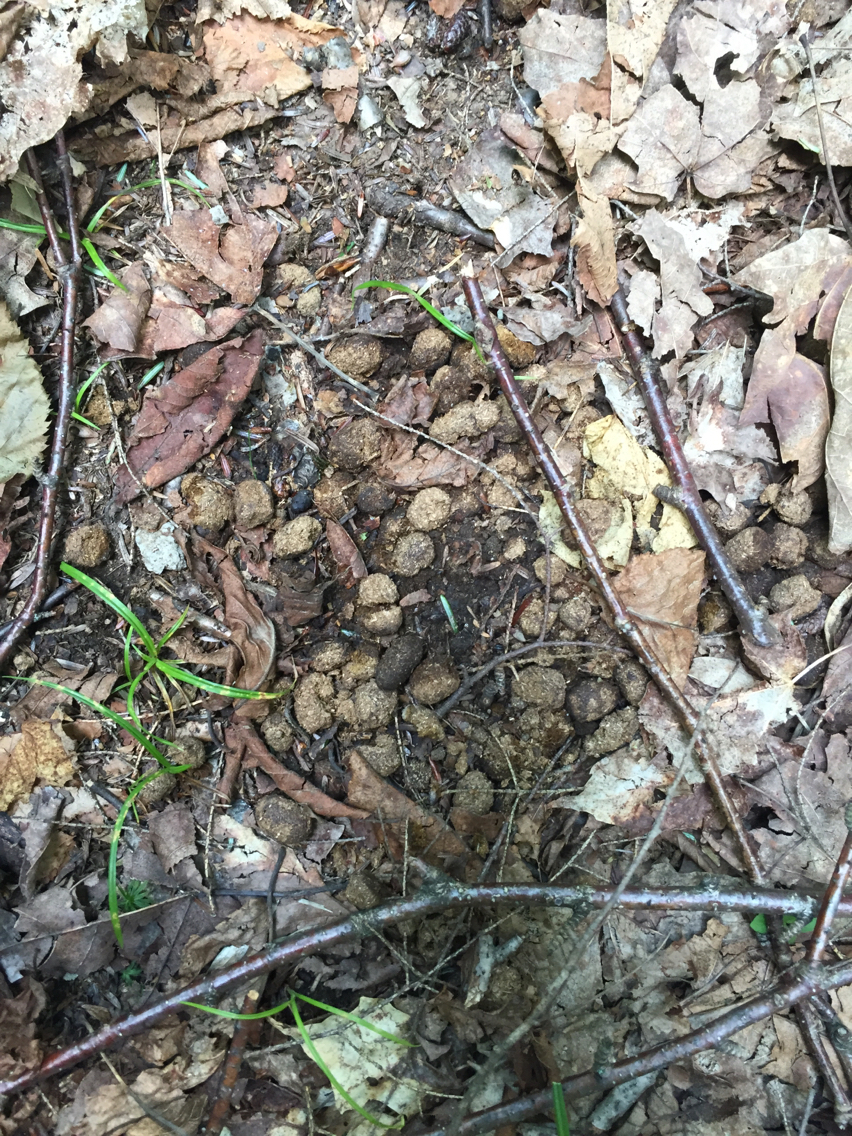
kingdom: Animalia
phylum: Chordata
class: Mammalia
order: Artiodactyla
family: Cervidae
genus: Odocoileus
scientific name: Odocoileus virginianus
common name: White-tailed deer
